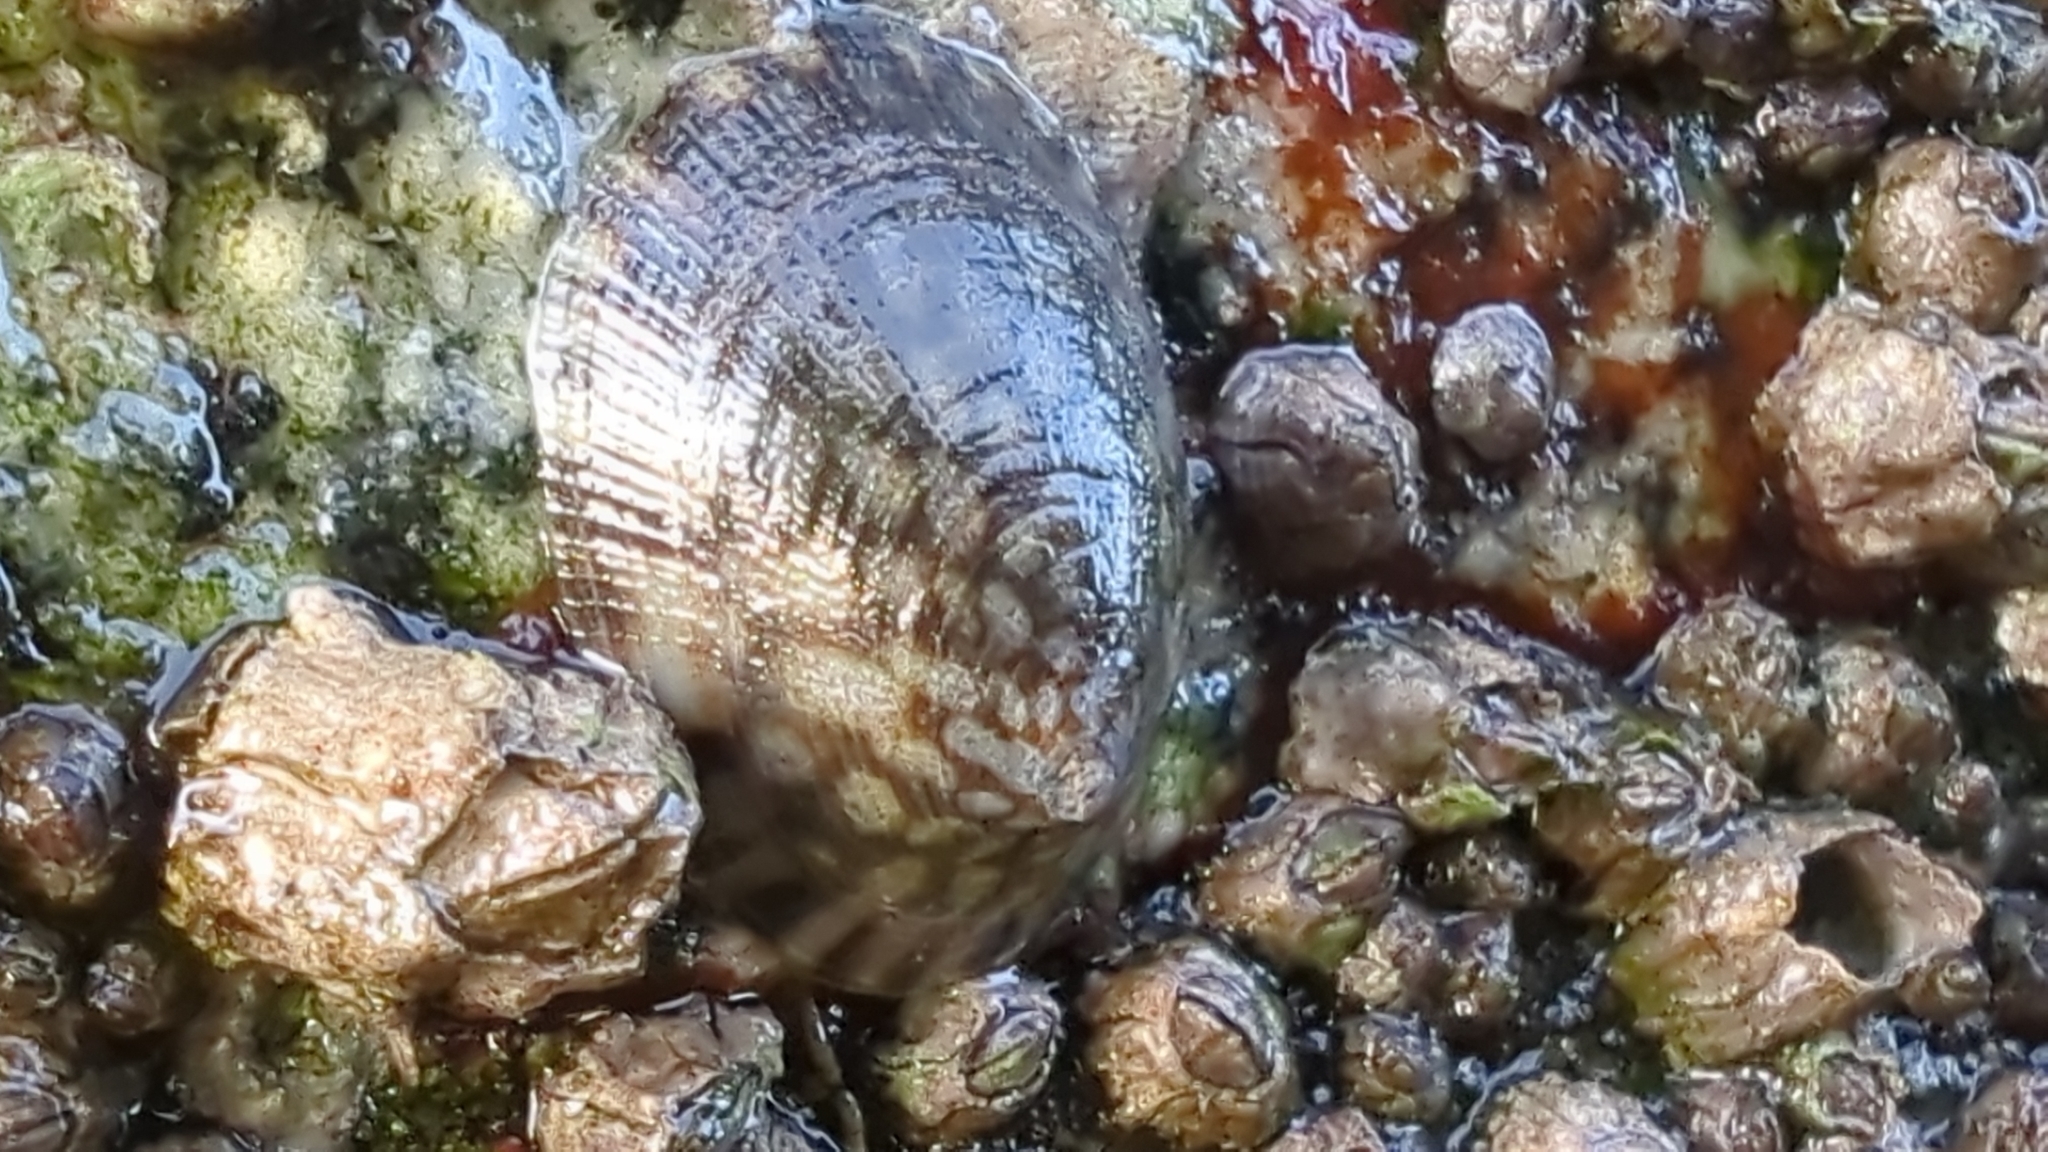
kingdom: Animalia
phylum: Mollusca
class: Gastropoda
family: Lottiidae
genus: Lottia
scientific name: Lottia persona
